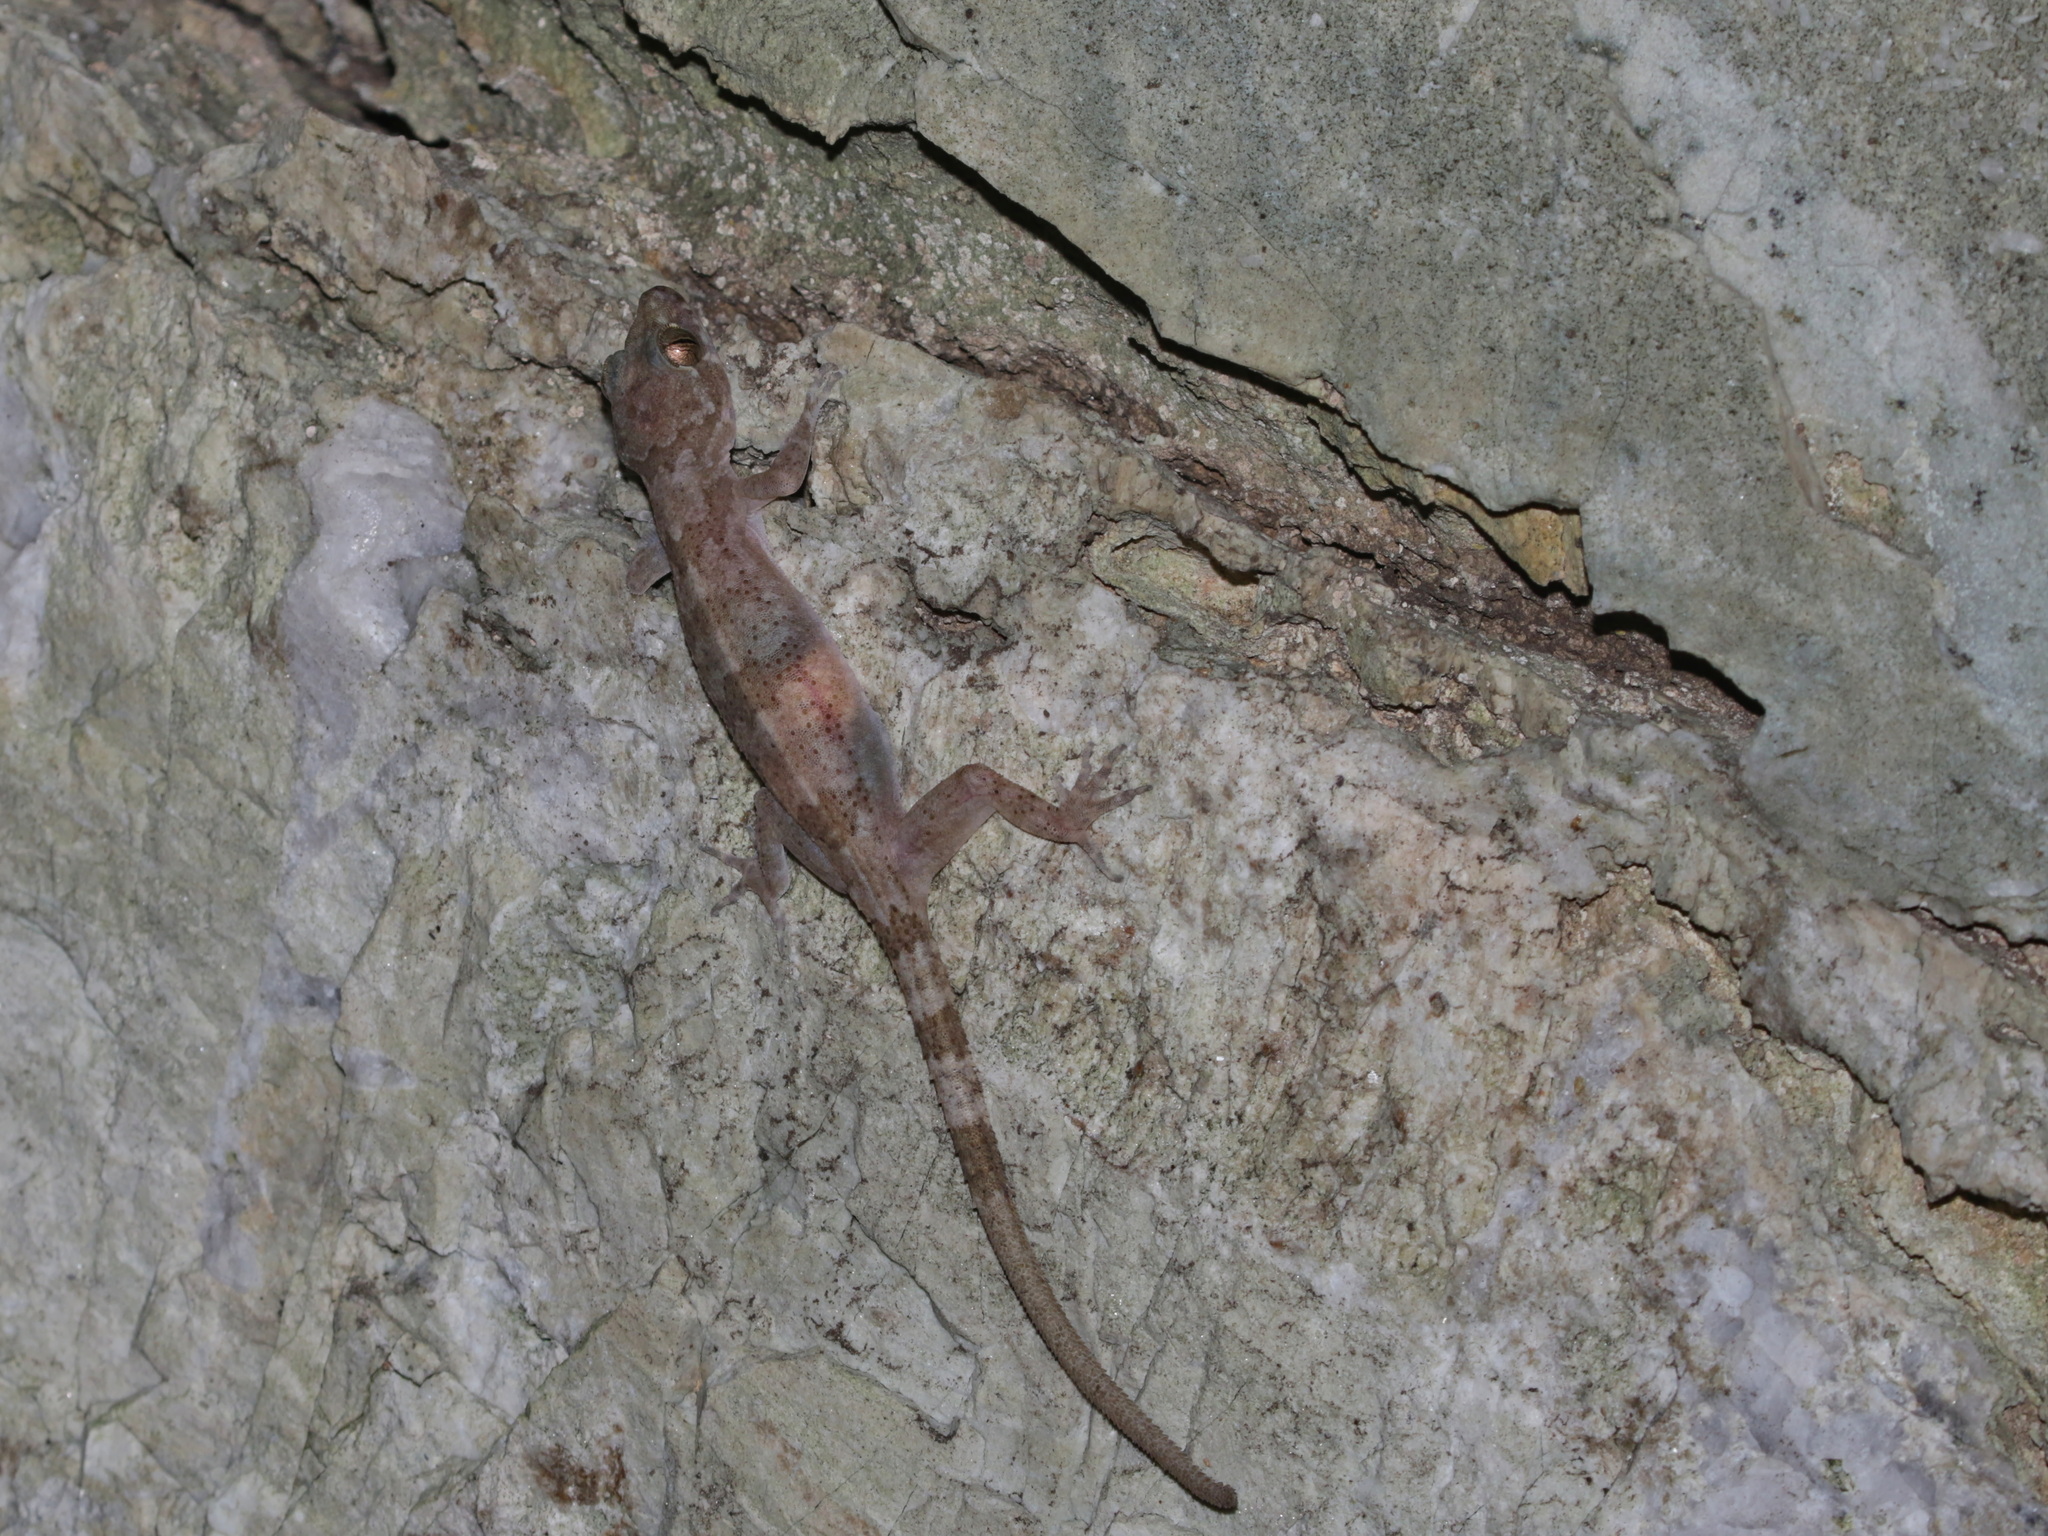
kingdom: Animalia
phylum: Chordata
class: Squamata
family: Gekkonidae
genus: Cyrtodactylus
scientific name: Cyrtodactylus fluvicavus
